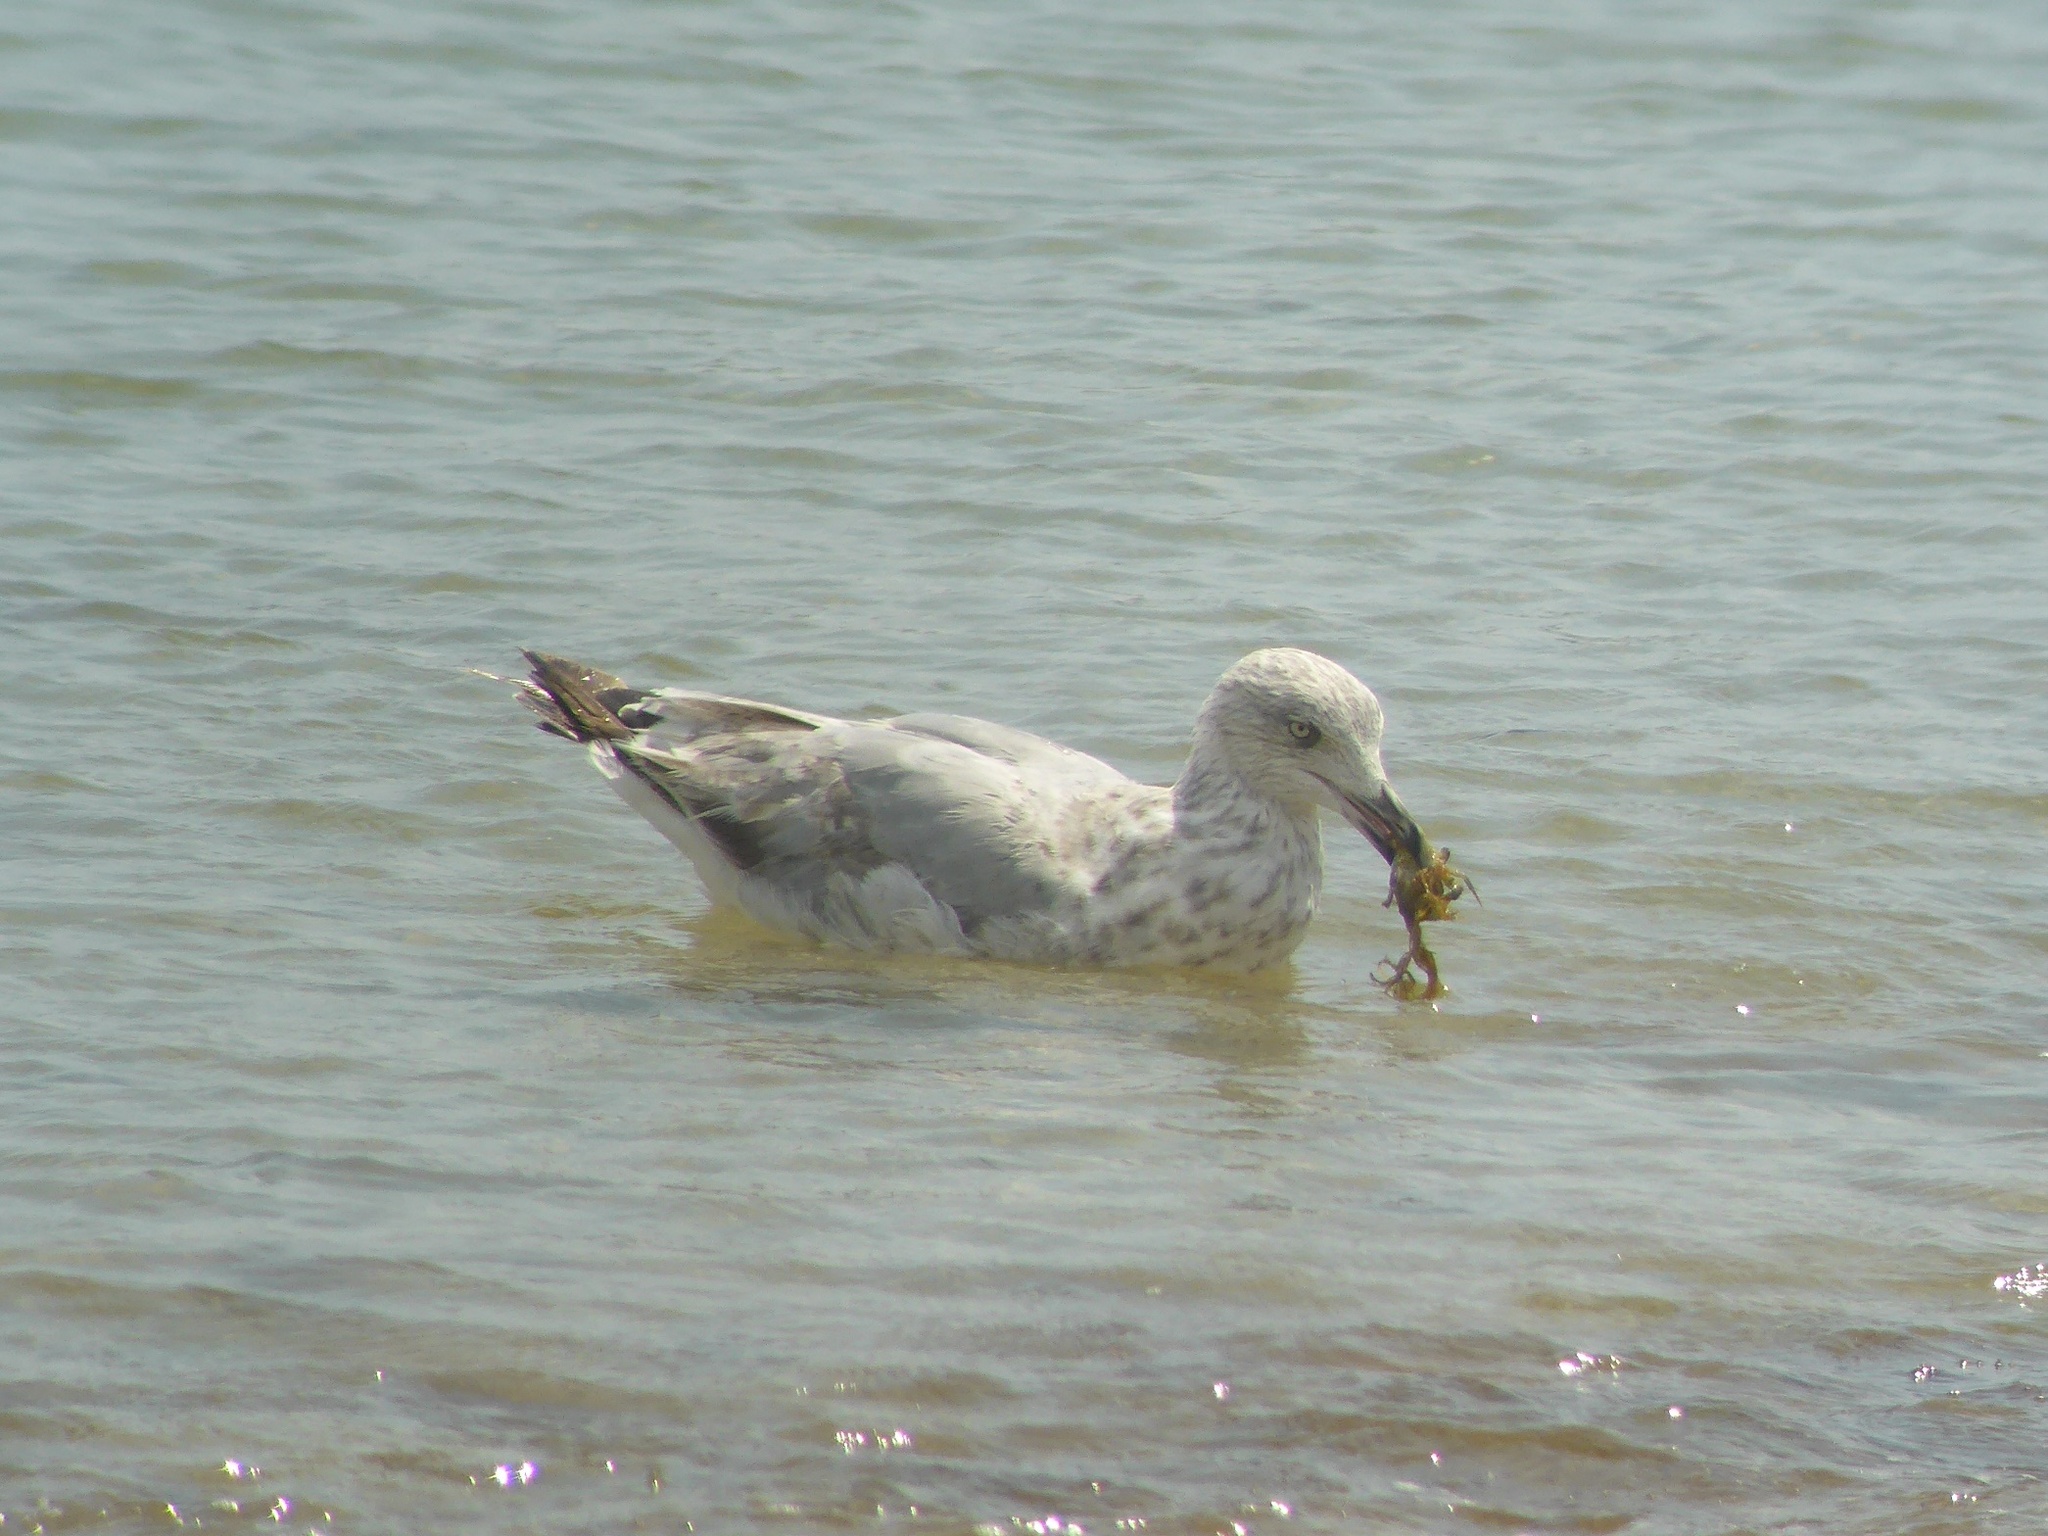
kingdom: Animalia
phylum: Chordata
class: Aves
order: Charadriiformes
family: Laridae
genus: Larus
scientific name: Larus argentatus
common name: Herring gull
